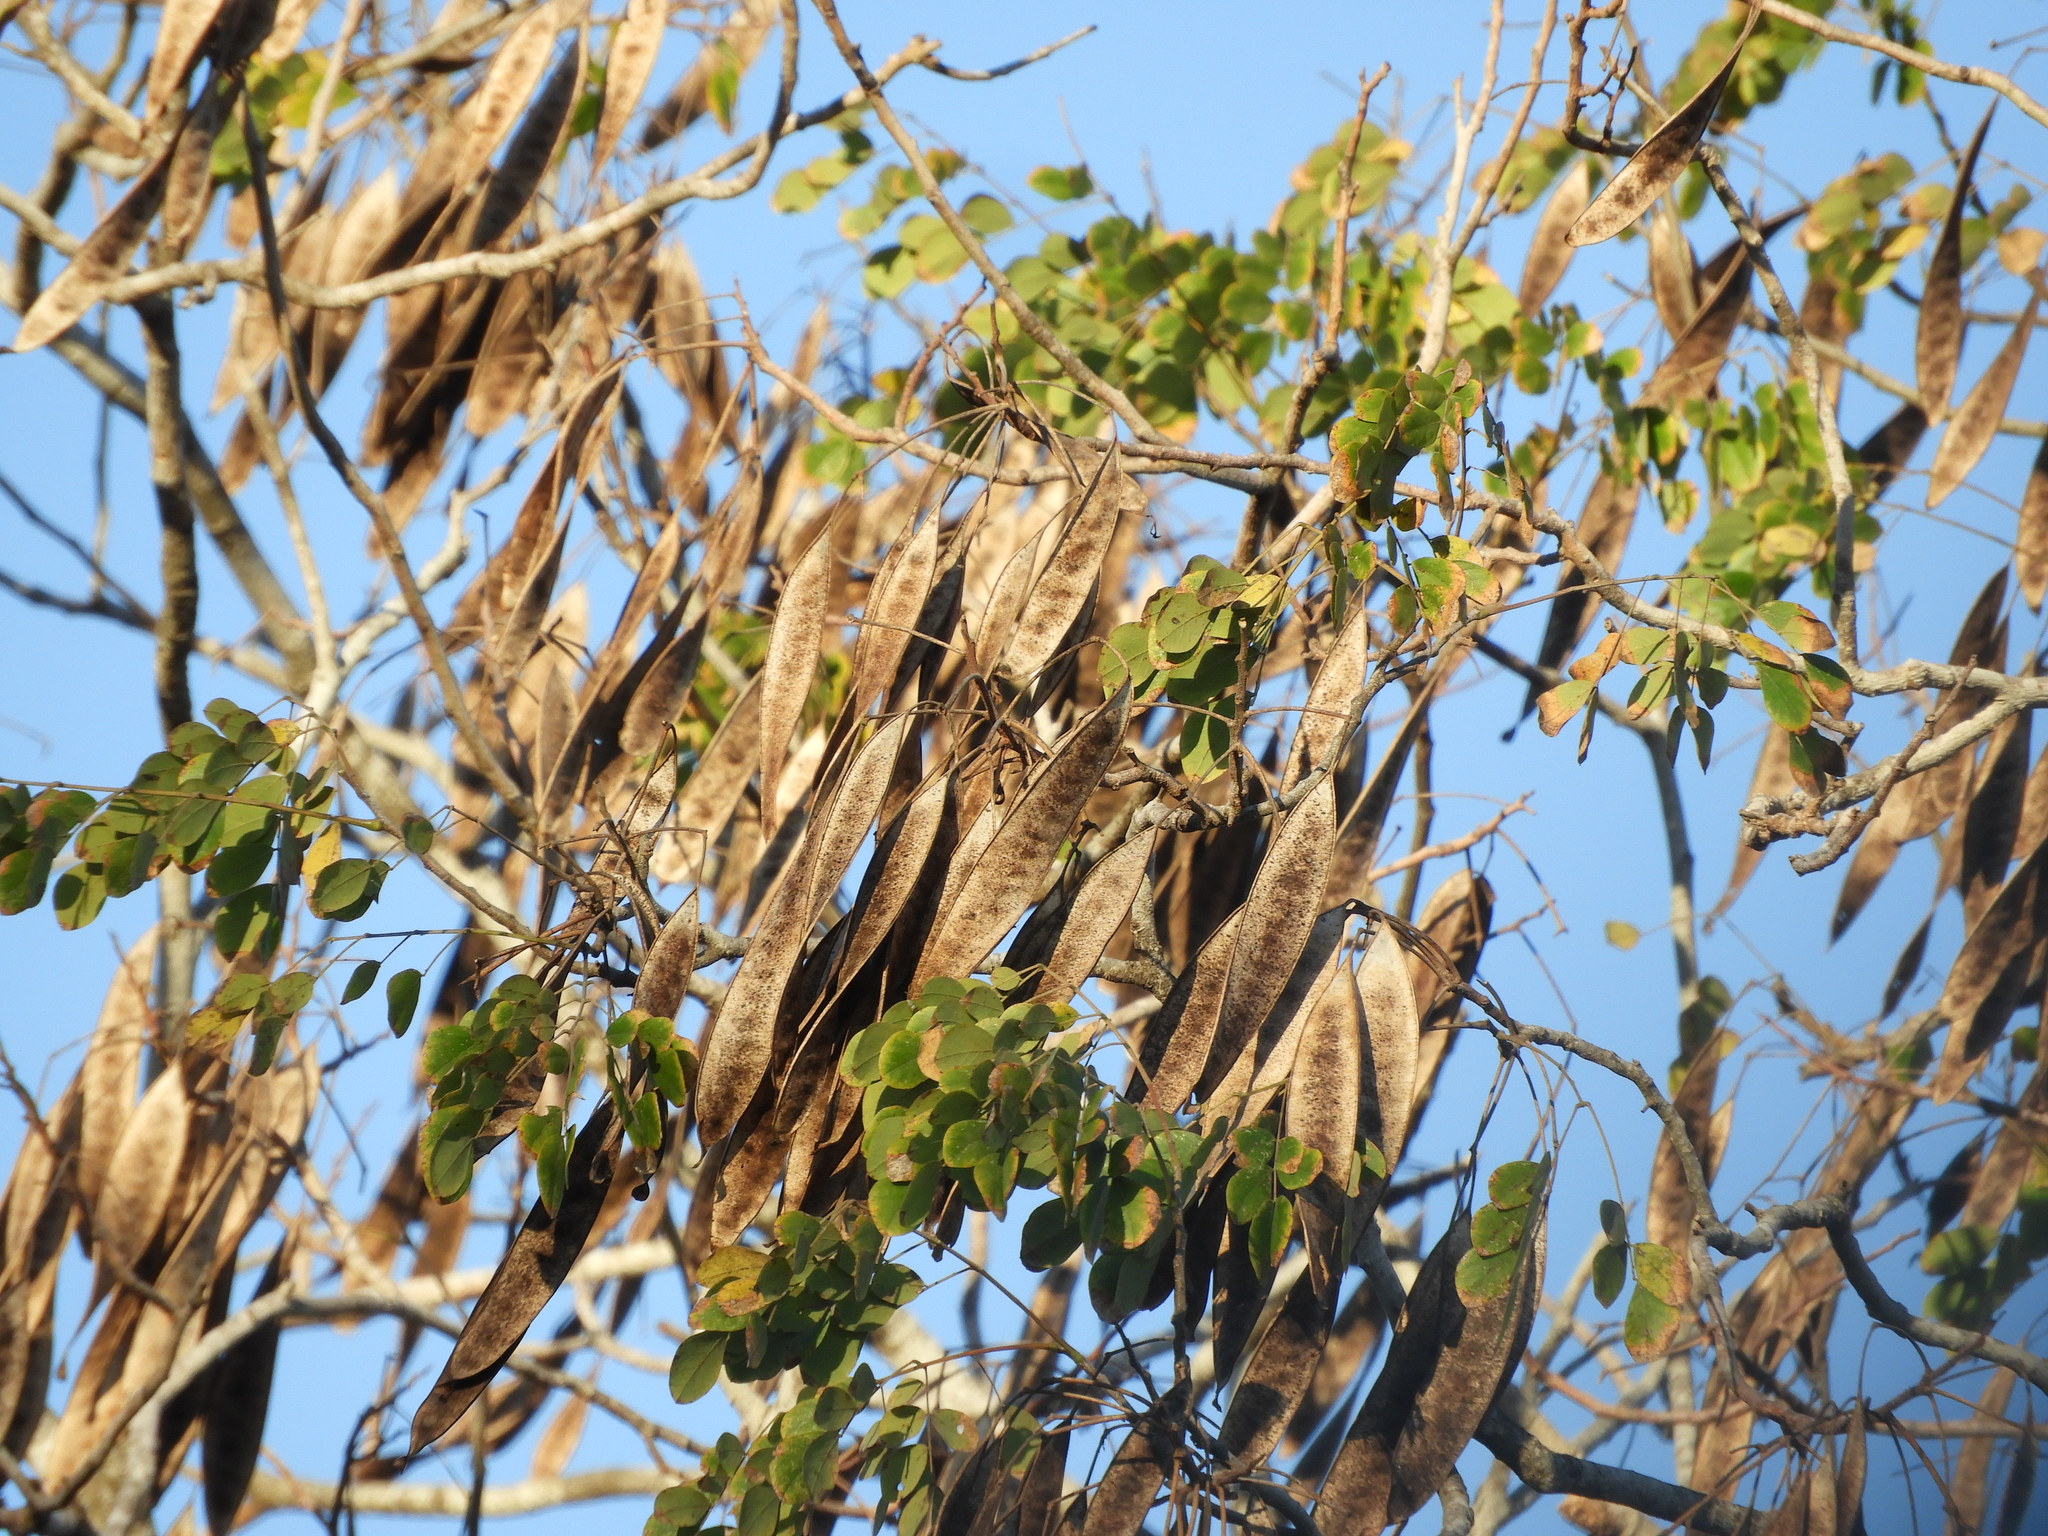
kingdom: Plantae
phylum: Tracheophyta
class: Magnoliopsida
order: Fabales
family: Fabaceae
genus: Albizia
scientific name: Albizia occidentalis
